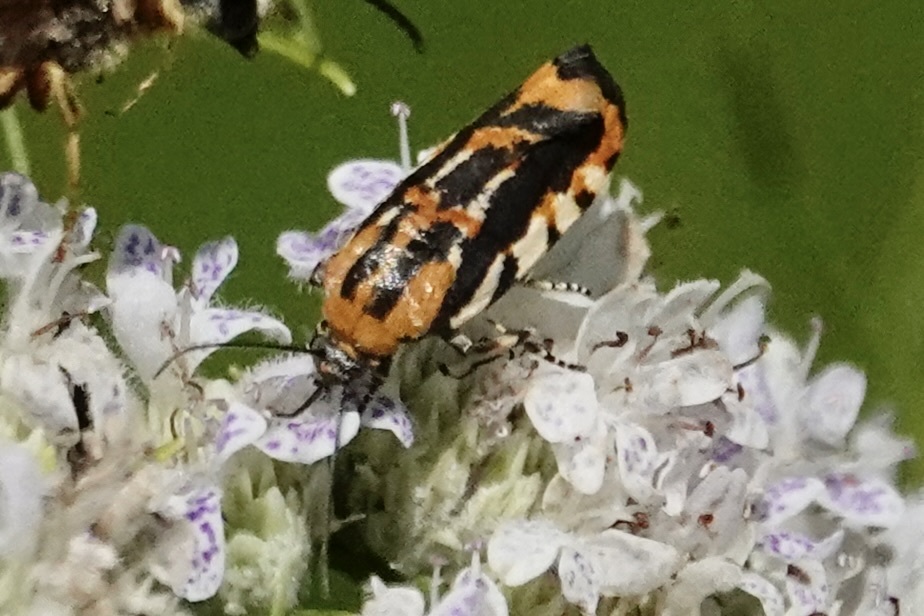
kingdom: Animalia
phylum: Arthropoda
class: Insecta
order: Lepidoptera
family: Noctuidae
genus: Acontia
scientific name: Acontia leo
